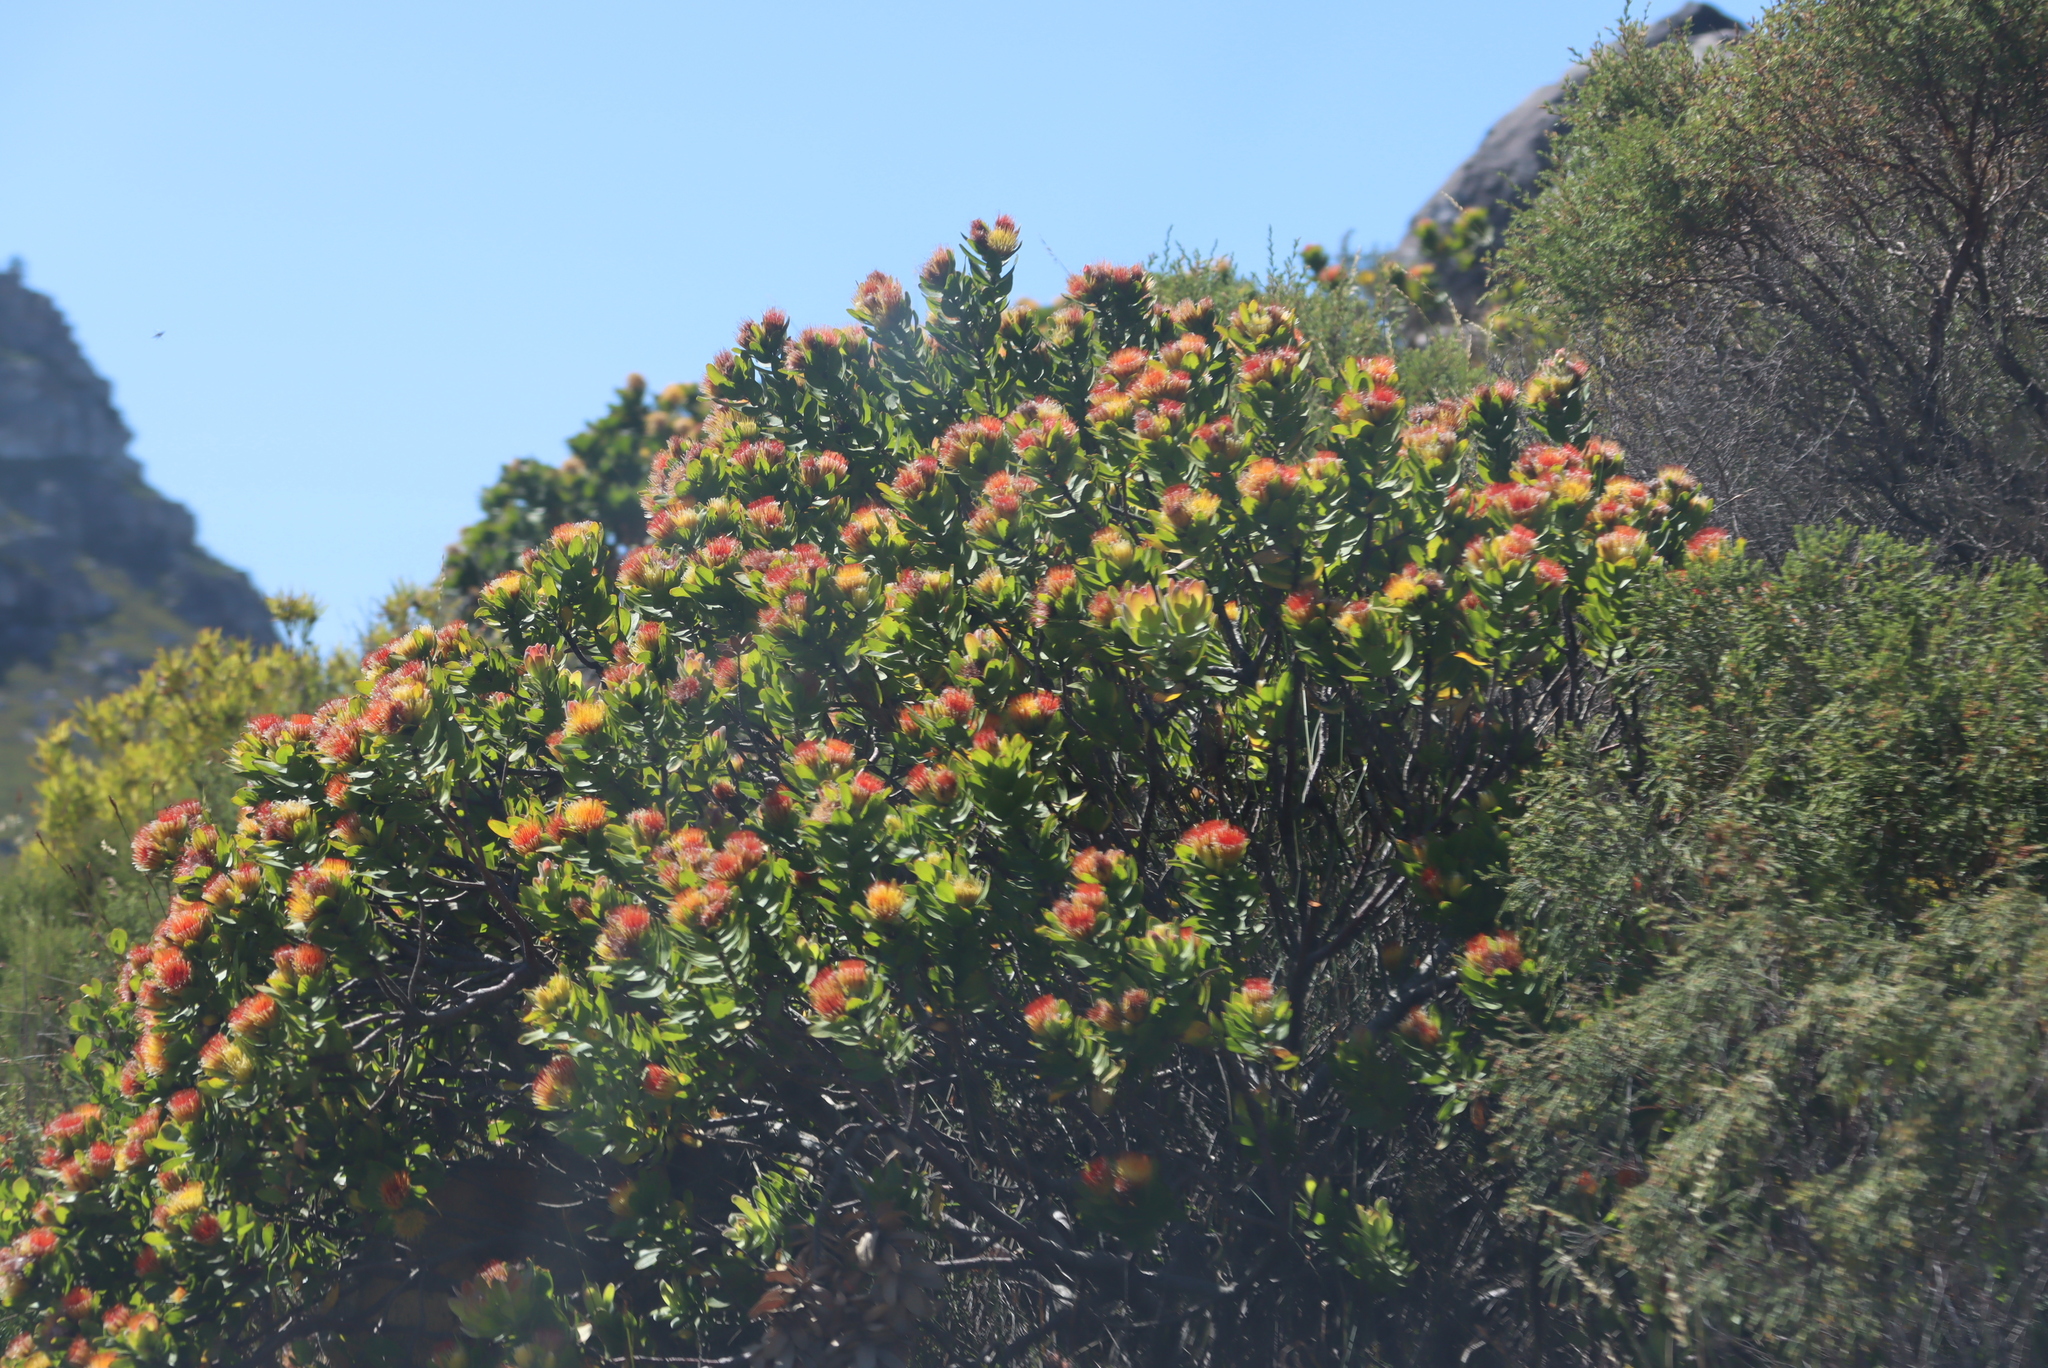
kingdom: Plantae
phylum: Tracheophyta
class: Magnoliopsida
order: Proteales
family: Proteaceae
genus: Leucospermum
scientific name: Leucospermum oleifolium
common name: Matches
